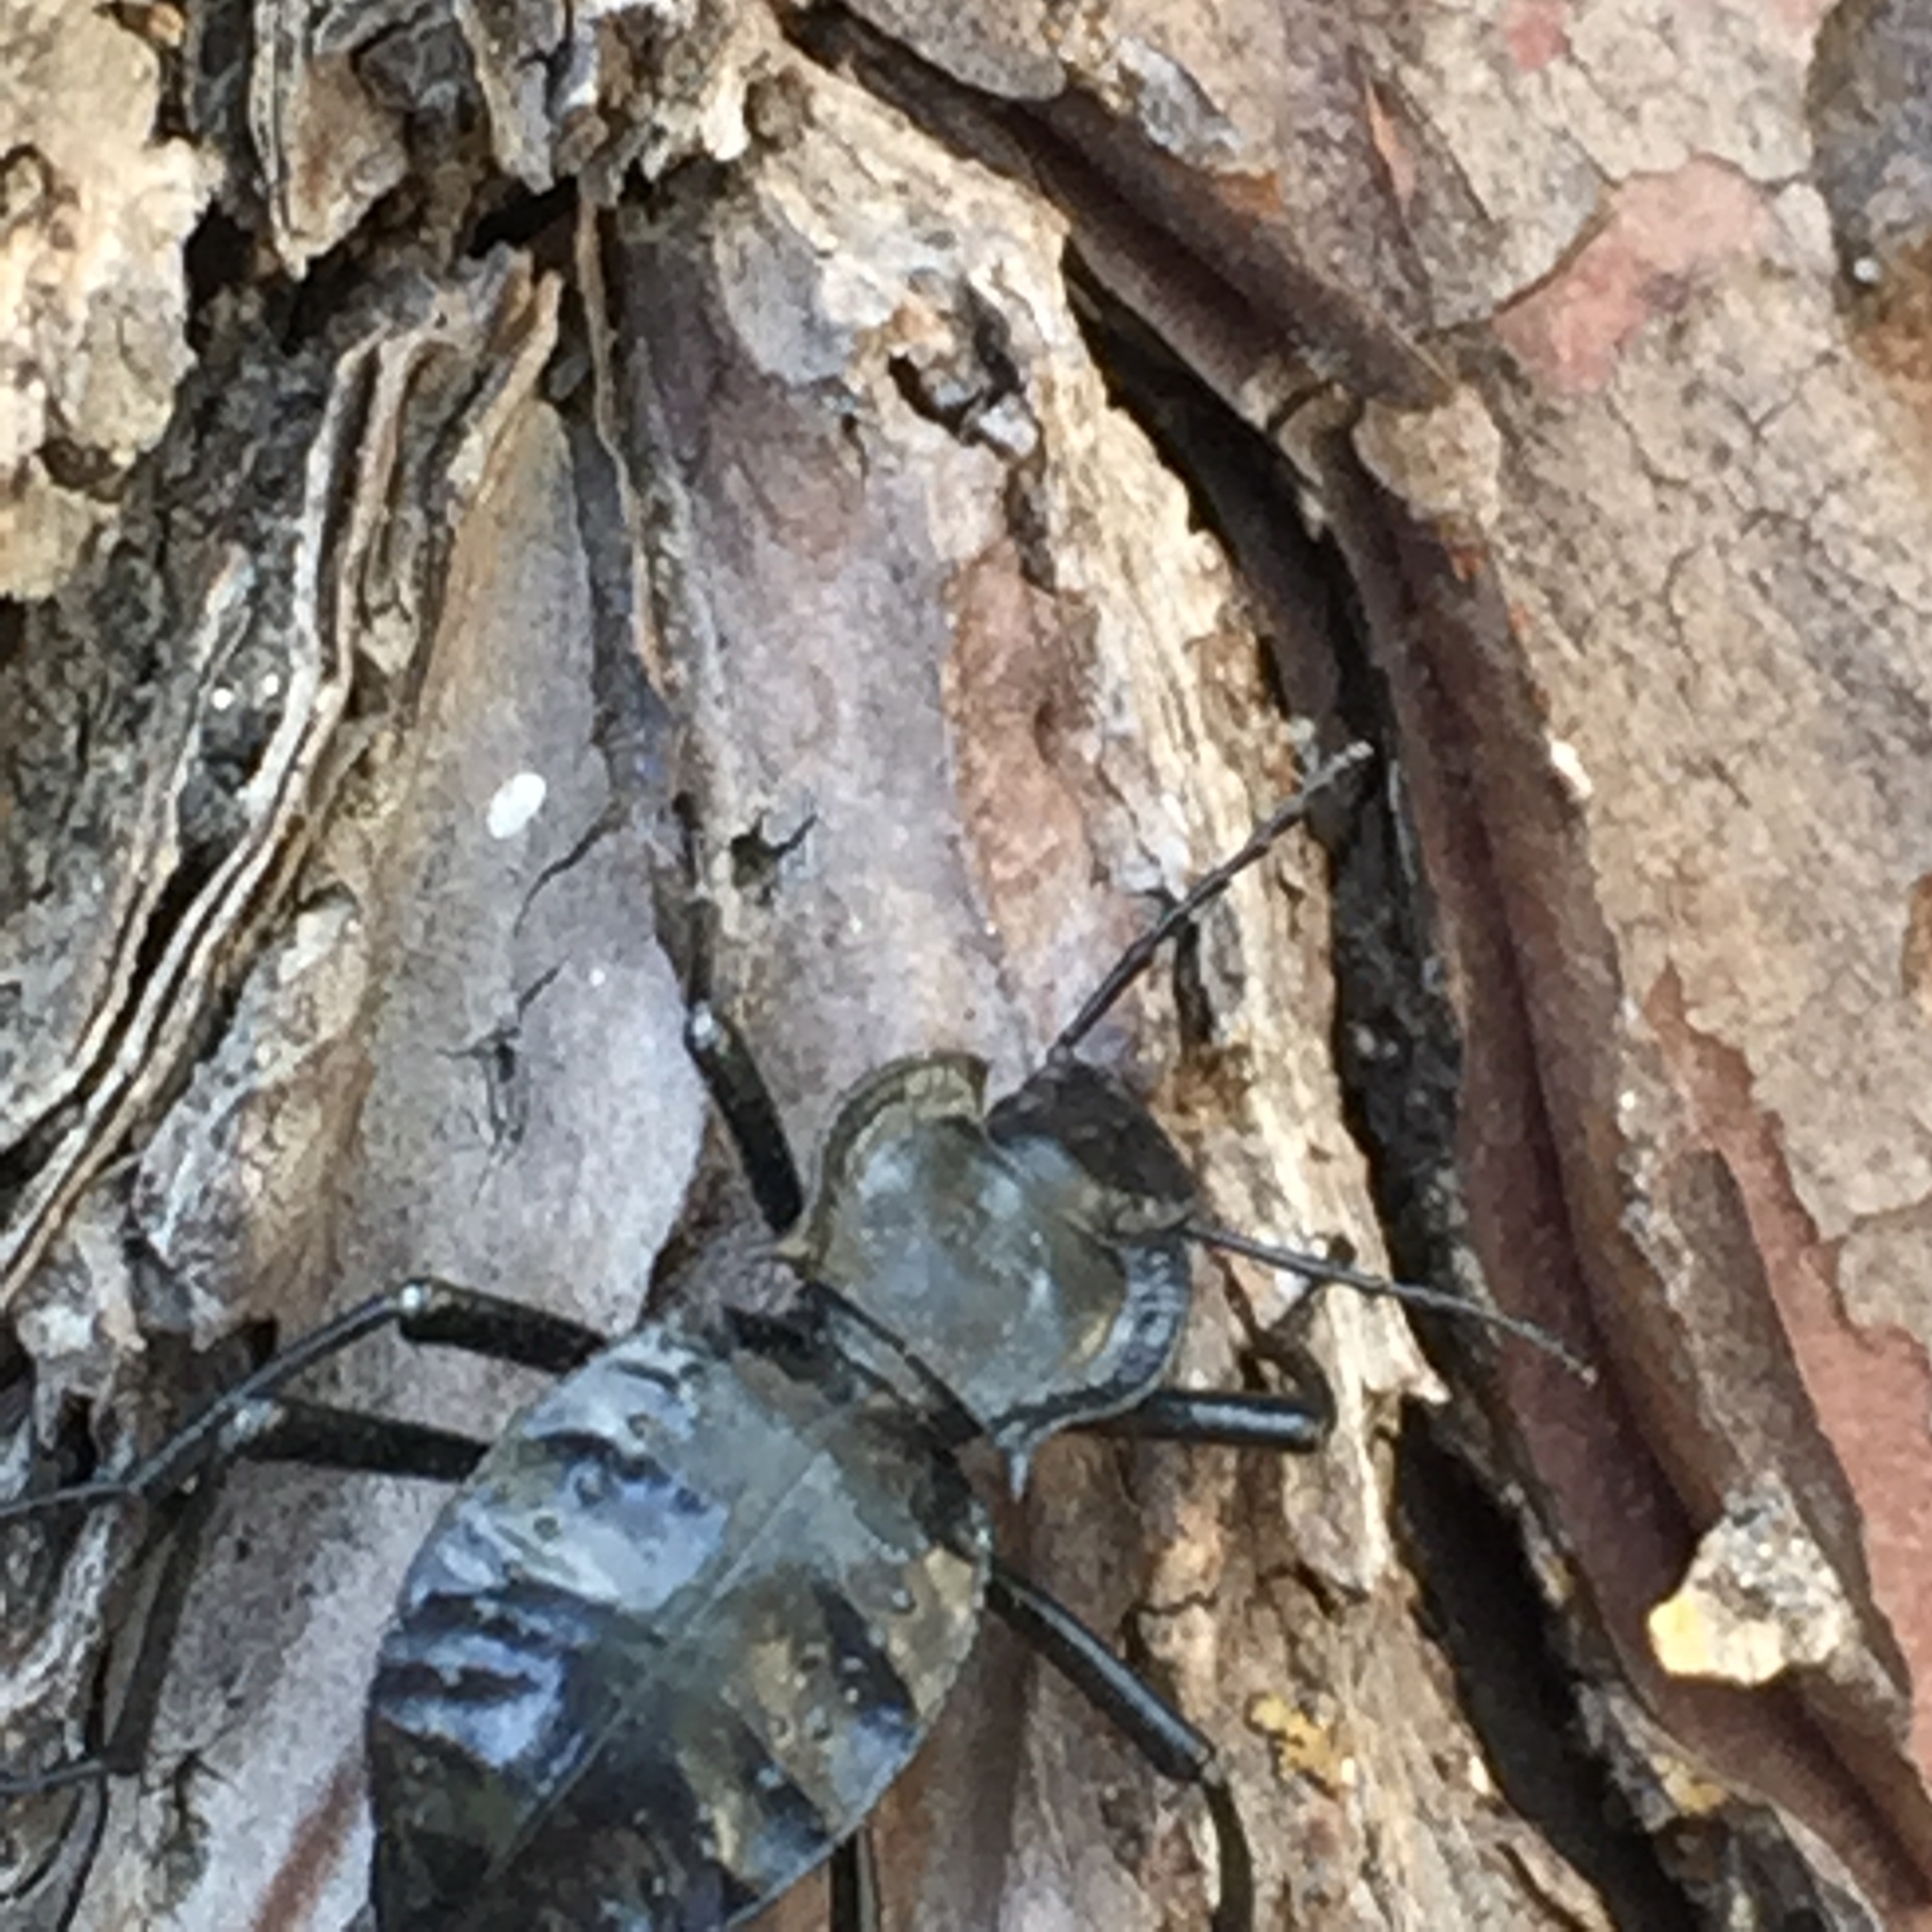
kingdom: Animalia
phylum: Arthropoda
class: Insecta
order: Coleoptera
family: Tenebrionidae
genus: Akis
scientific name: Akis bacarozzo
